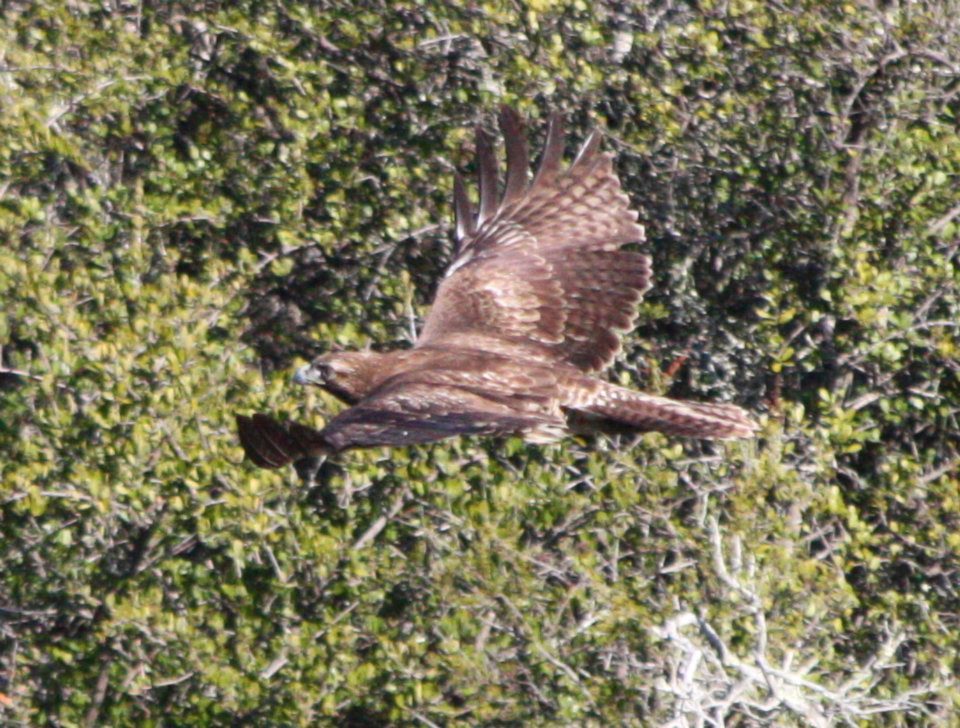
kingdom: Animalia
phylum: Chordata
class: Aves
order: Accipitriformes
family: Accipitridae
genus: Buteo
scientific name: Buteo jamaicensis
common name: Red-tailed hawk
